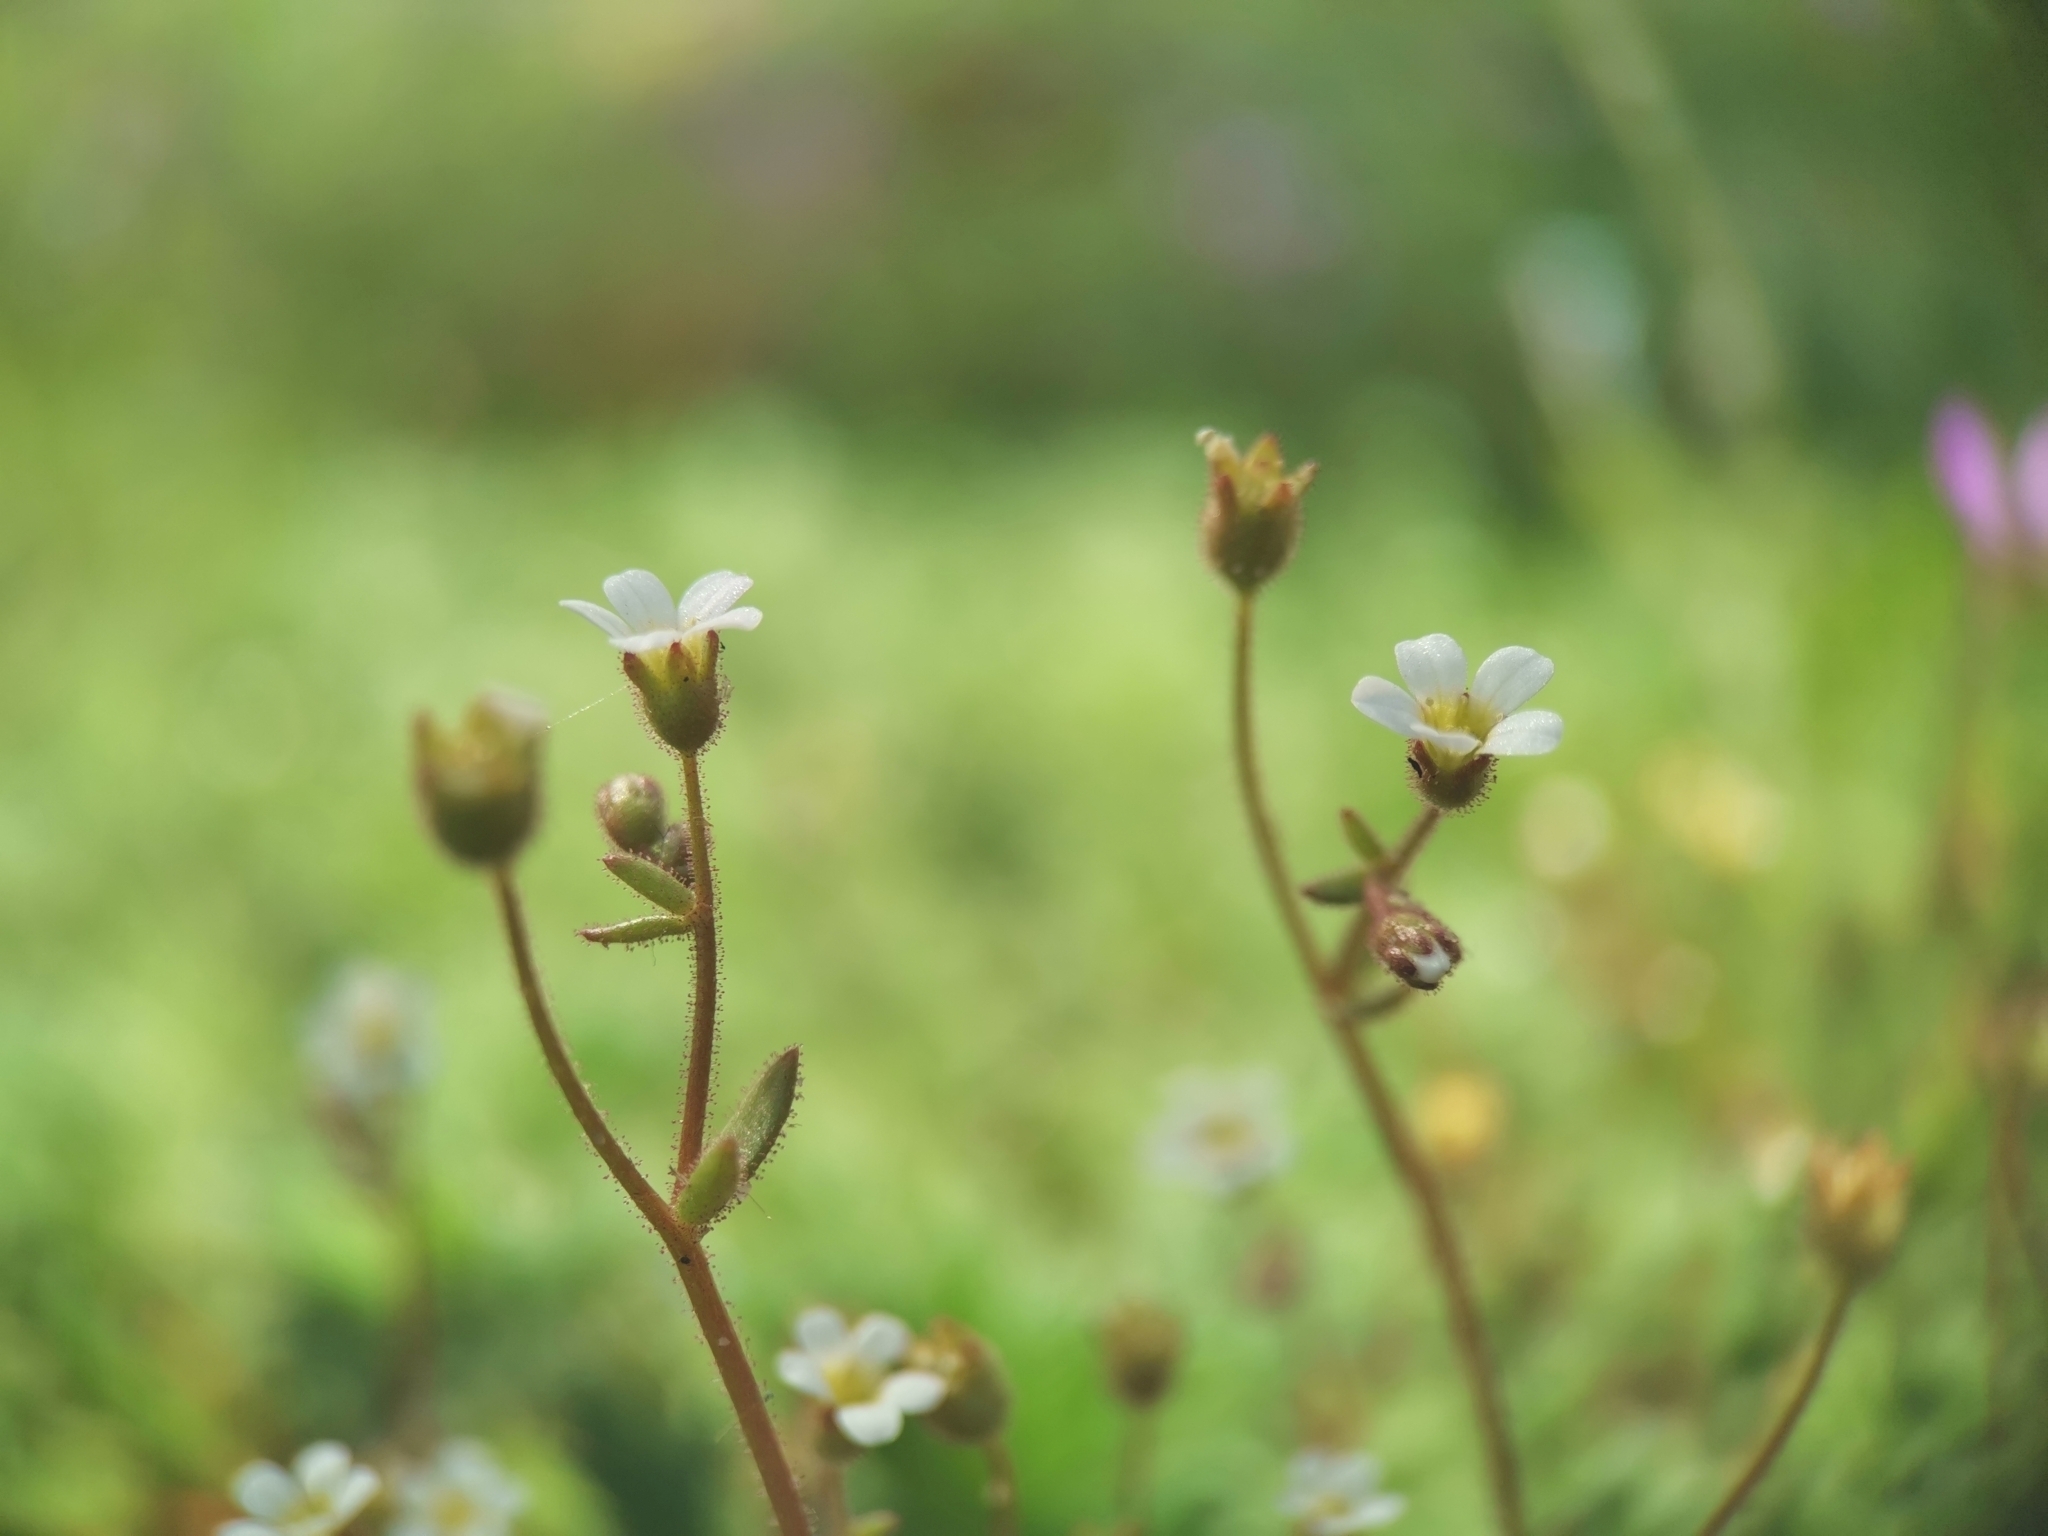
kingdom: Plantae
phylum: Tracheophyta
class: Magnoliopsida
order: Saxifragales
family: Saxifragaceae
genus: Saxifraga
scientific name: Saxifraga tridactylites
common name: Rue-leaved saxifrage
